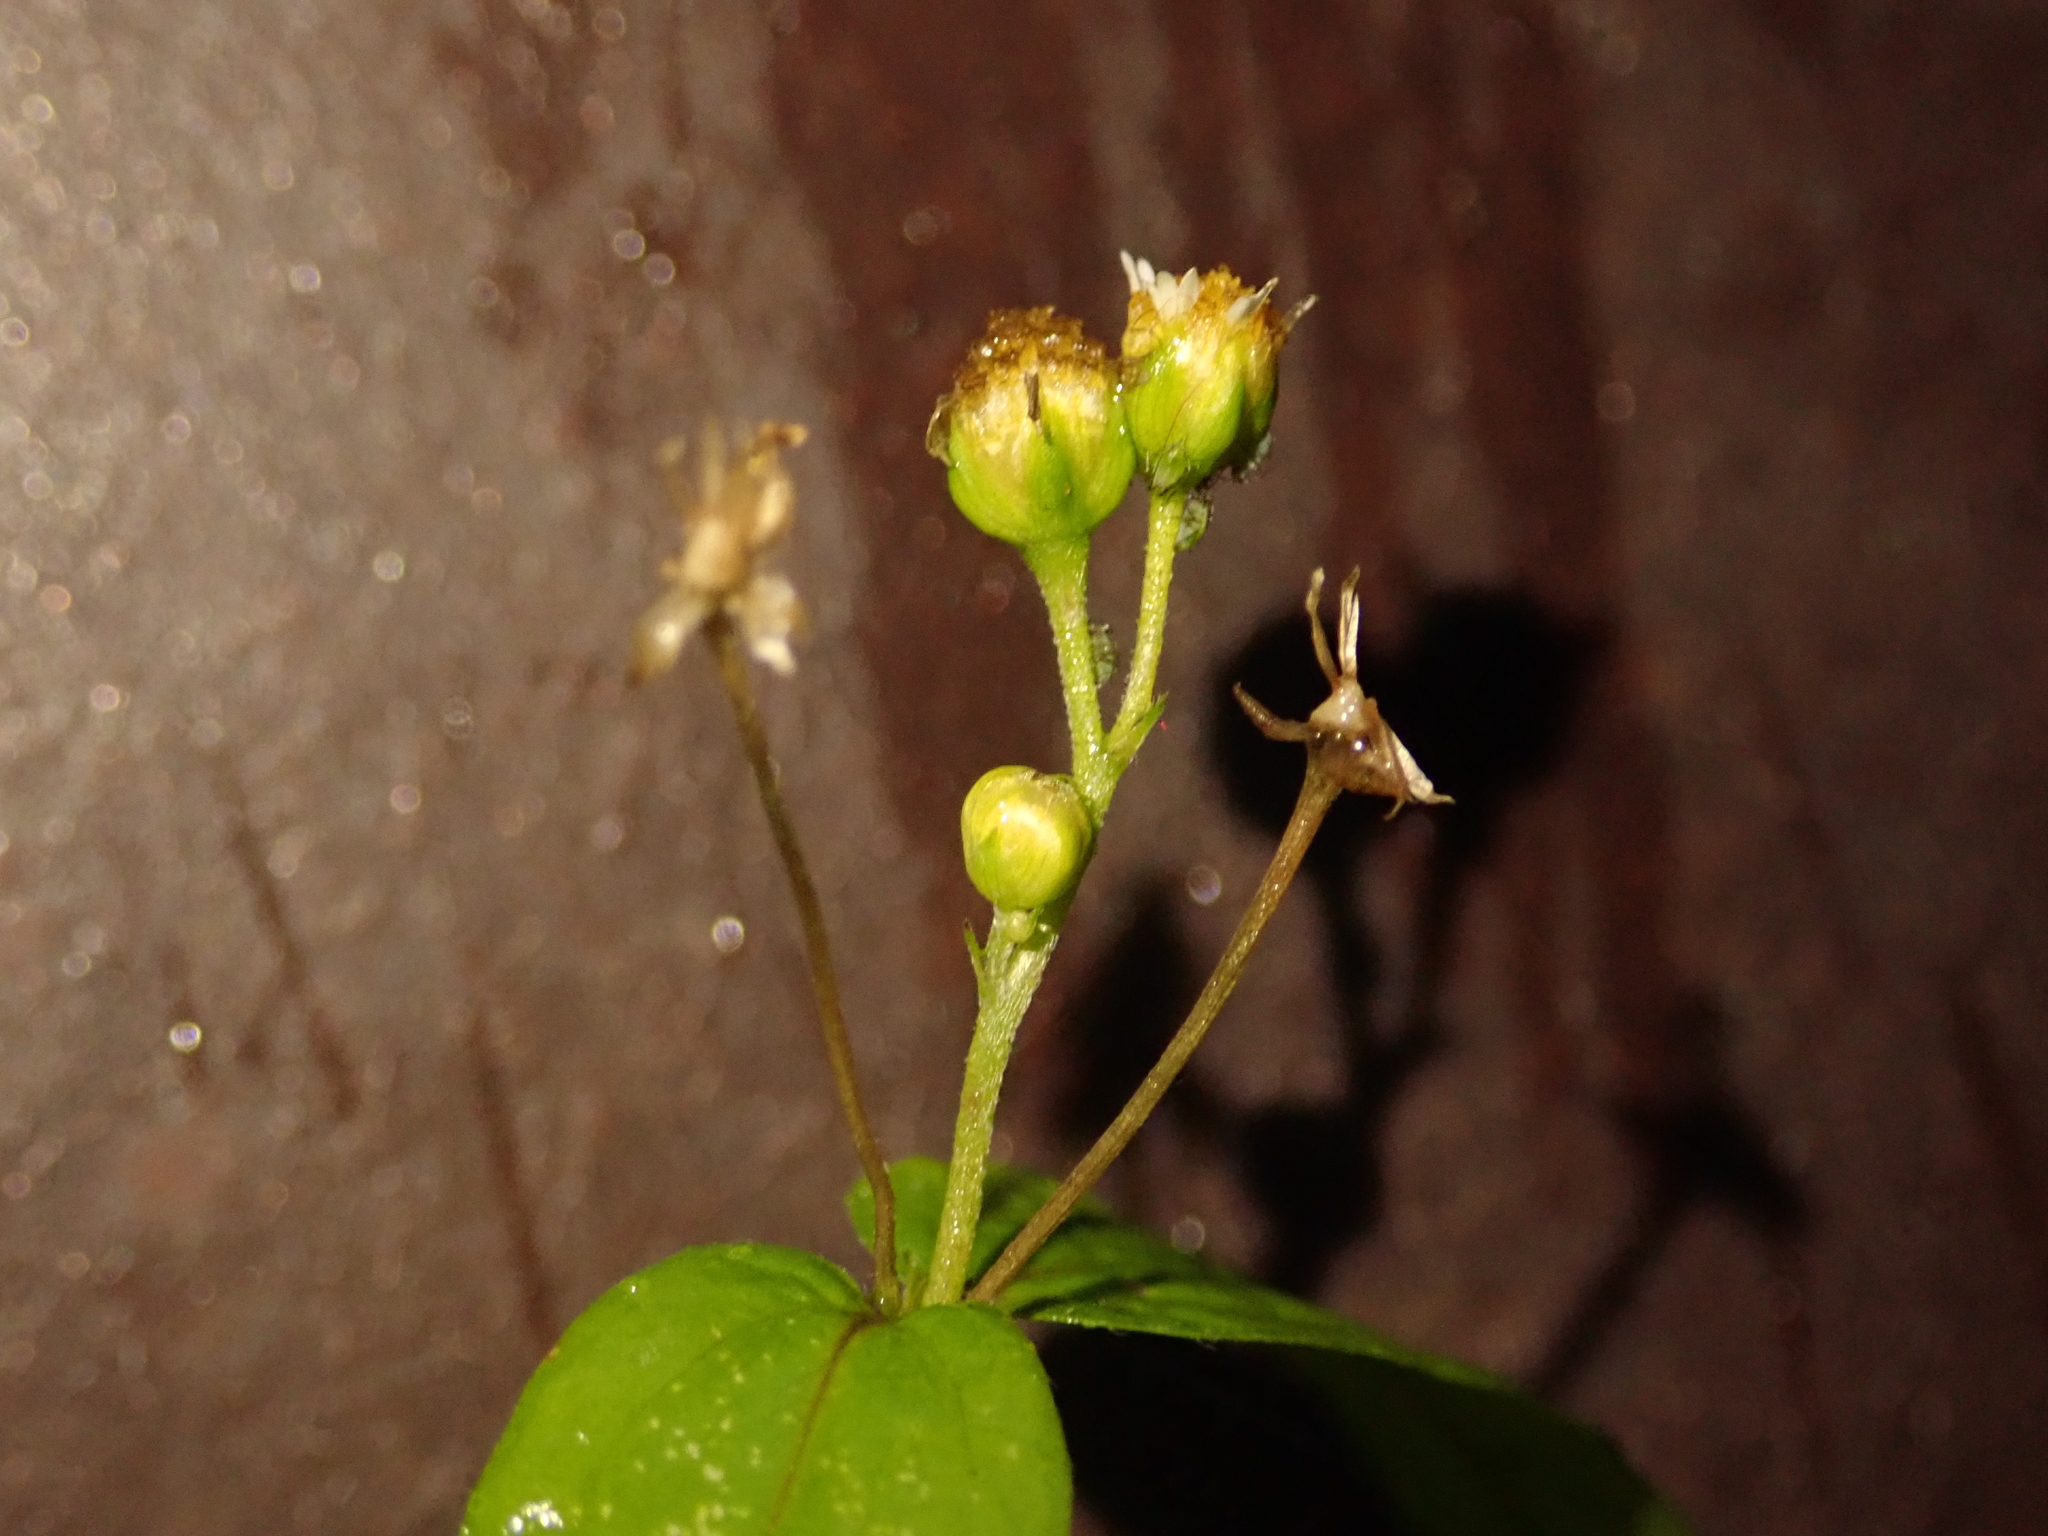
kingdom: Plantae
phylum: Tracheophyta
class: Magnoliopsida
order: Asterales
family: Asteraceae
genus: Galinsoga
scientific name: Galinsoga parviflora
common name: Gallant soldier
